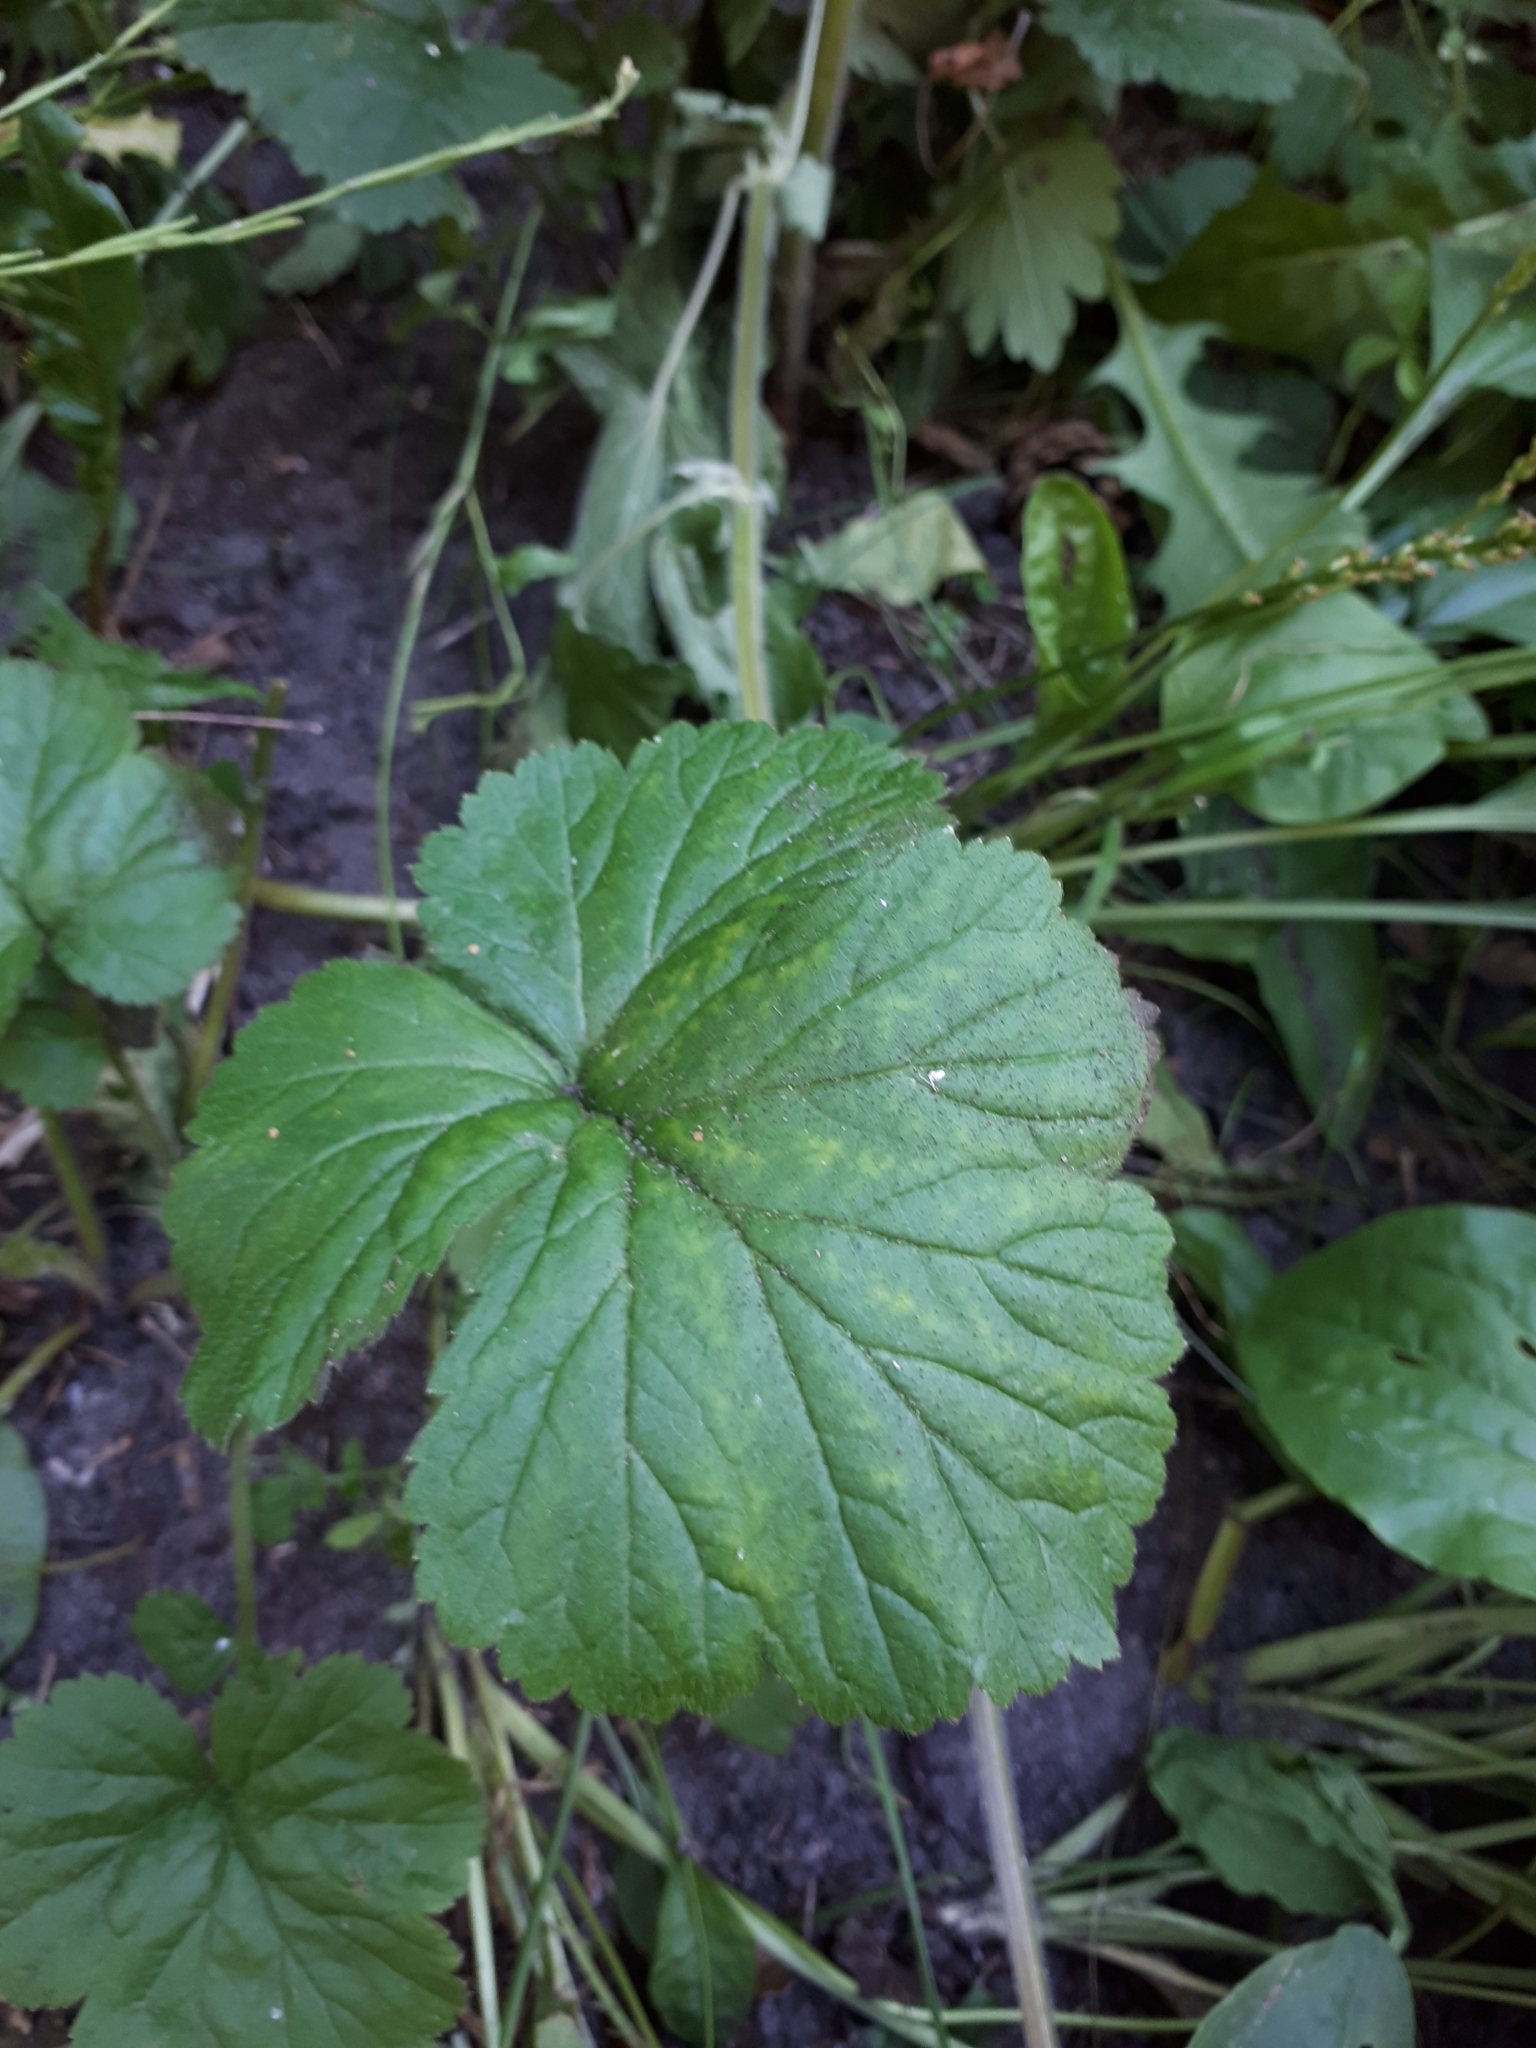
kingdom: Plantae
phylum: Tracheophyta
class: Magnoliopsida
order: Rosales
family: Rosaceae
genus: Geum
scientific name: Geum
